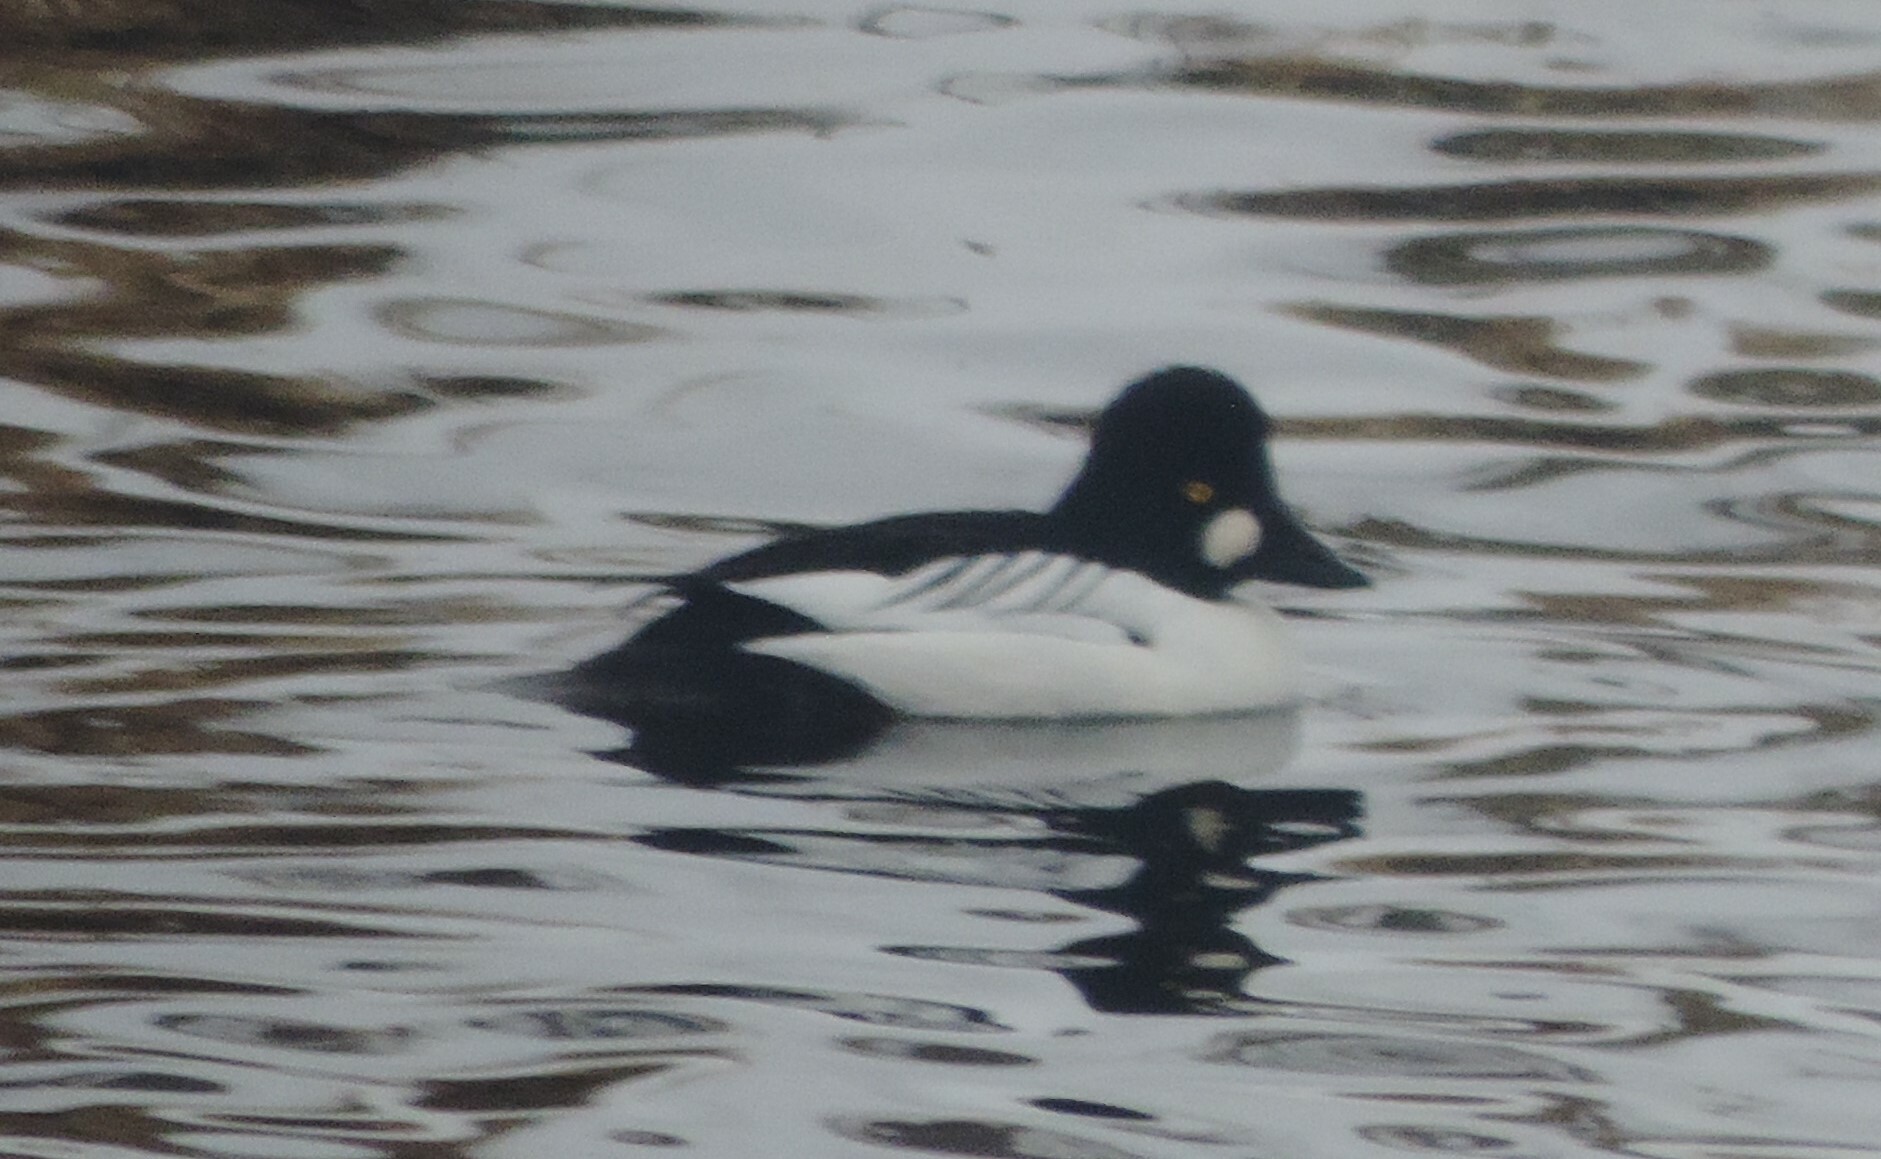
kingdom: Animalia
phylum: Chordata
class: Aves
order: Anseriformes
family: Anatidae
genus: Bucephala
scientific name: Bucephala clangula
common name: Common goldeneye
